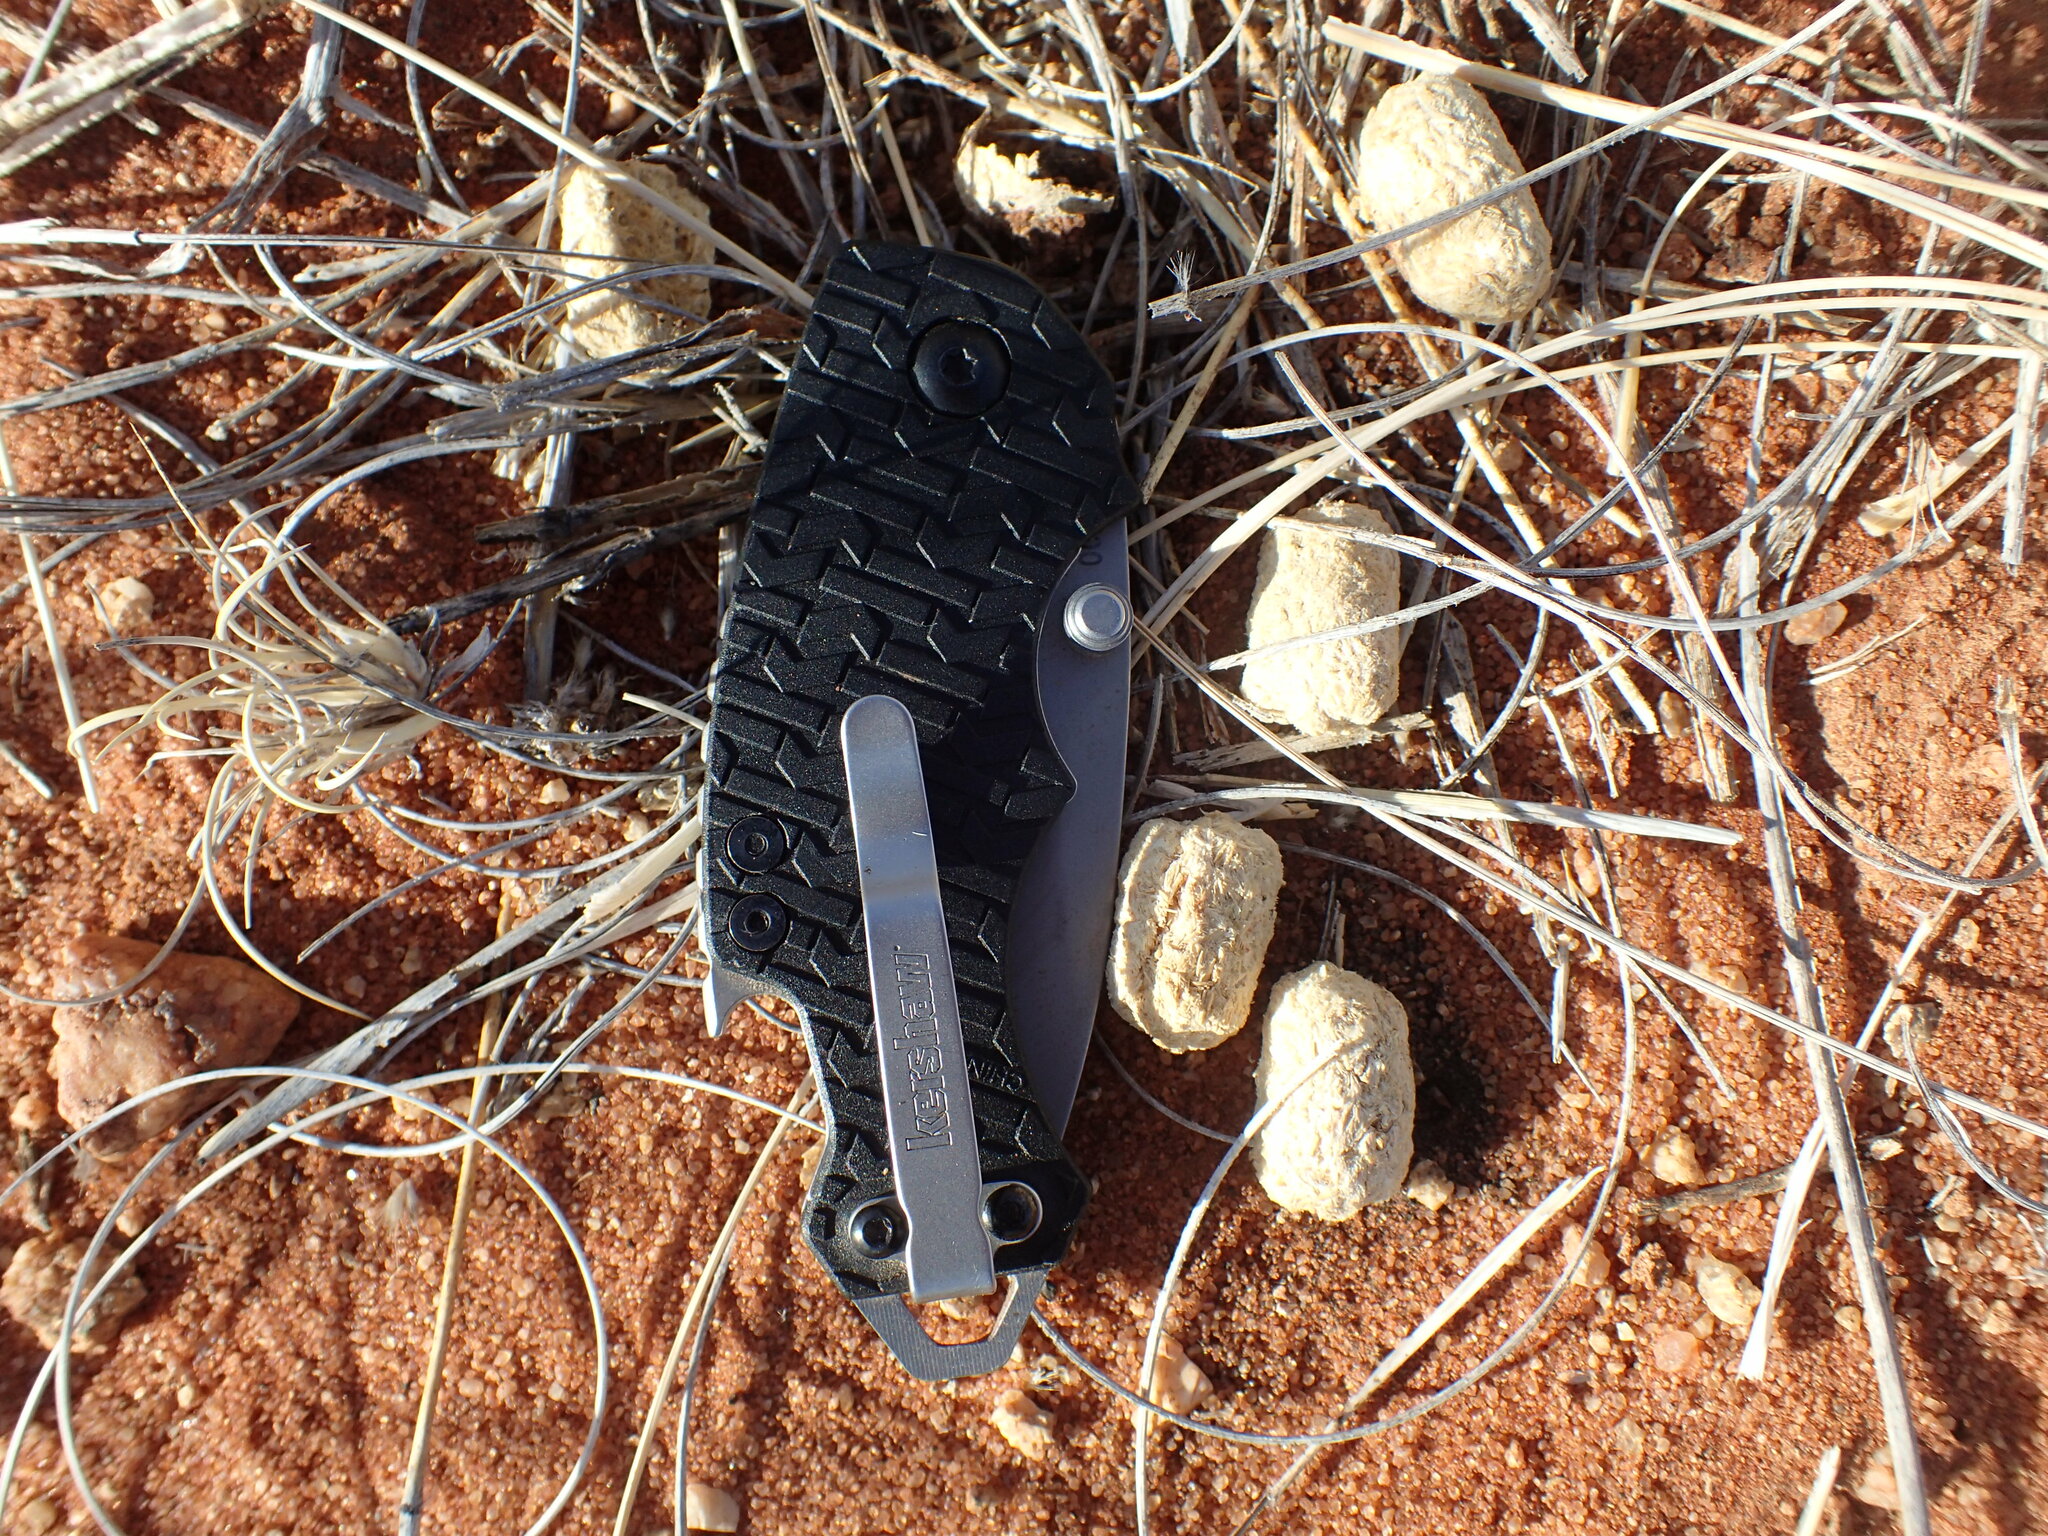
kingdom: Animalia
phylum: Chordata
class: Mammalia
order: Rodentia
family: Pedetidae
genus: Pedetes
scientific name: Pedetes capensis
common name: South african spring hare
